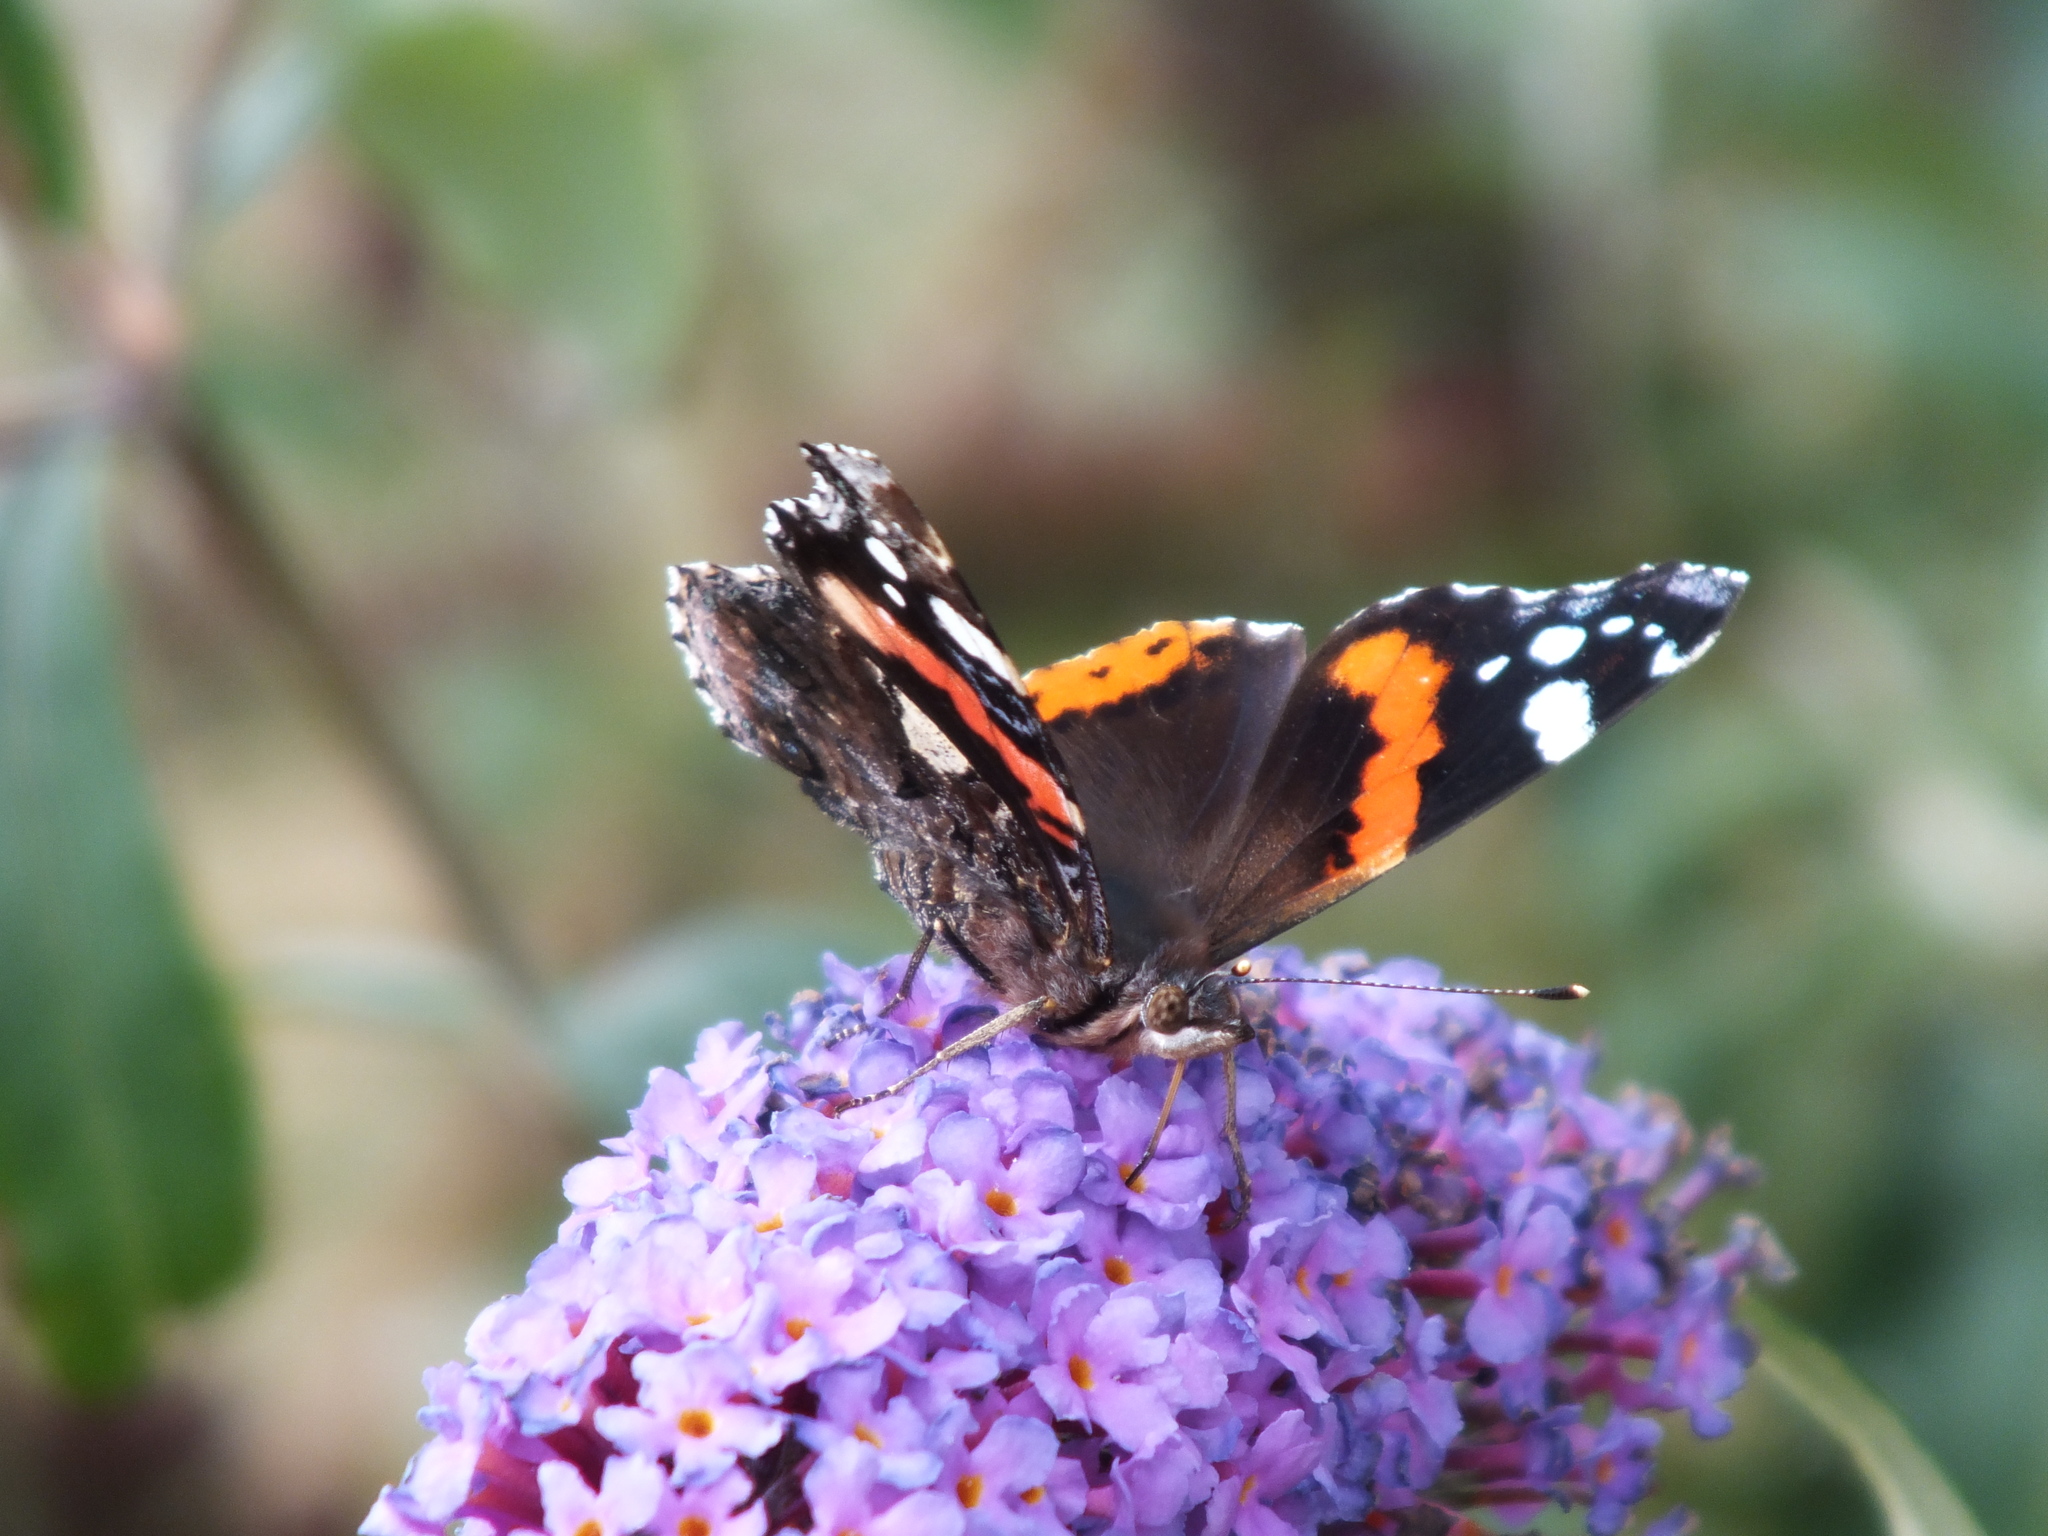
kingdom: Animalia
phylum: Arthropoda
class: Insecta
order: Lepidoptera
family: Nymphalidae
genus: Vanessa
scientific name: Vanessa atalanta
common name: Red admiral
